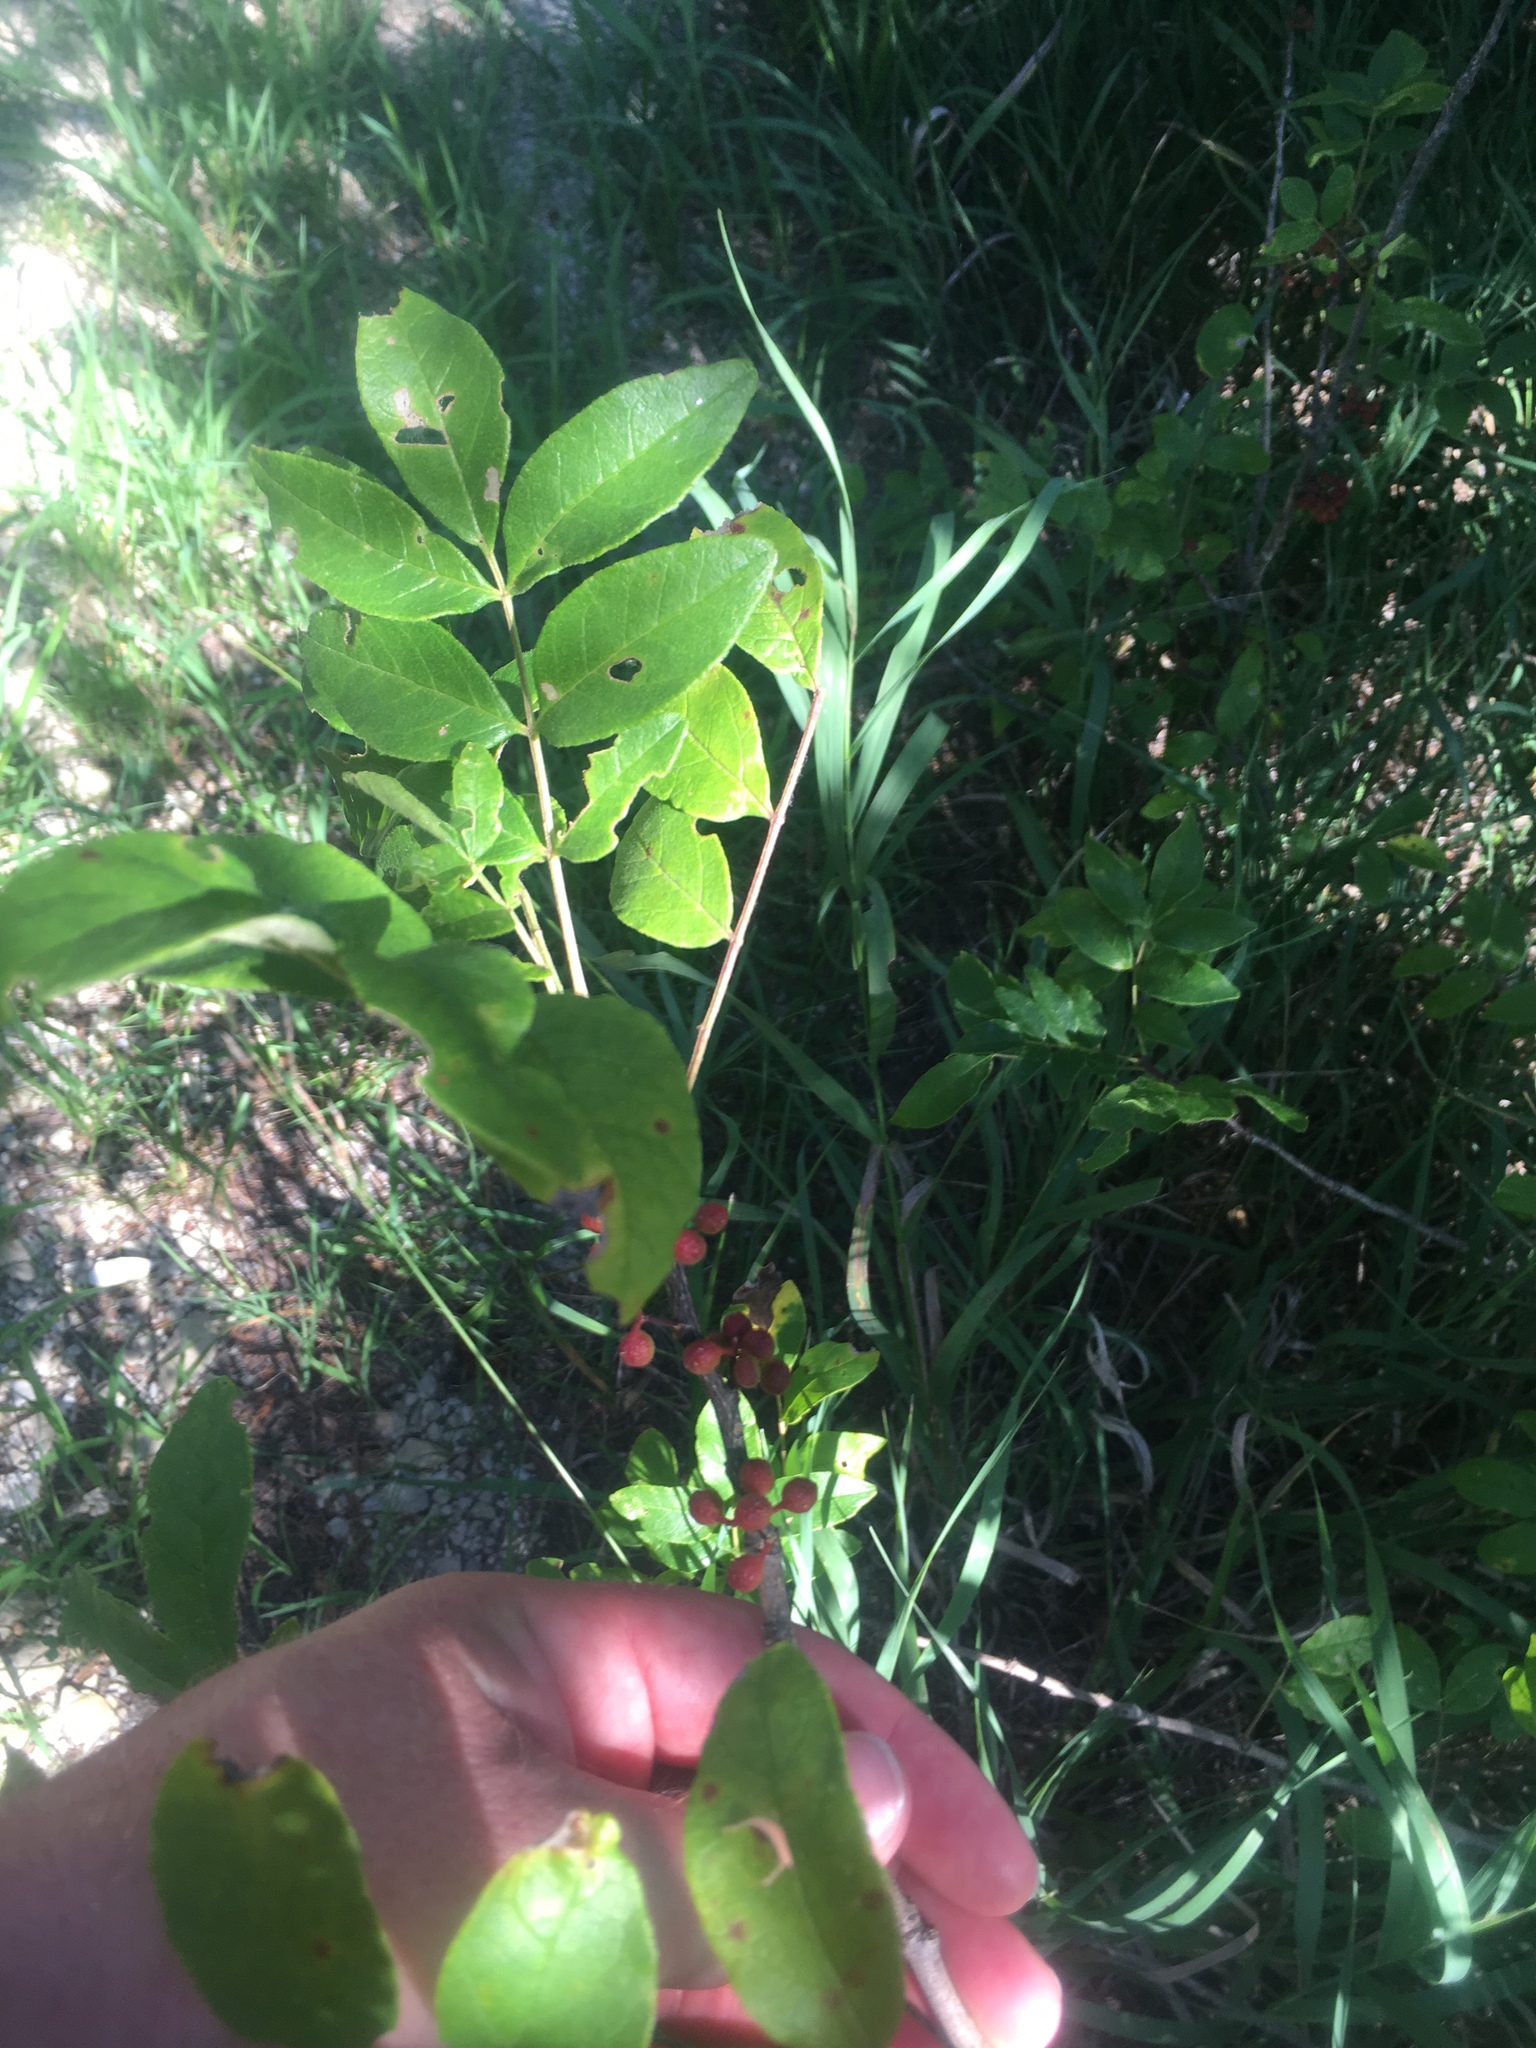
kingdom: Plantae
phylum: Tracheophyta
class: Magnoliopsida
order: Sapindales
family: Rutaceae
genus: Zanthoxylum
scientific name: Zanthoxylum americanum
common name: Northern prickly-ash
